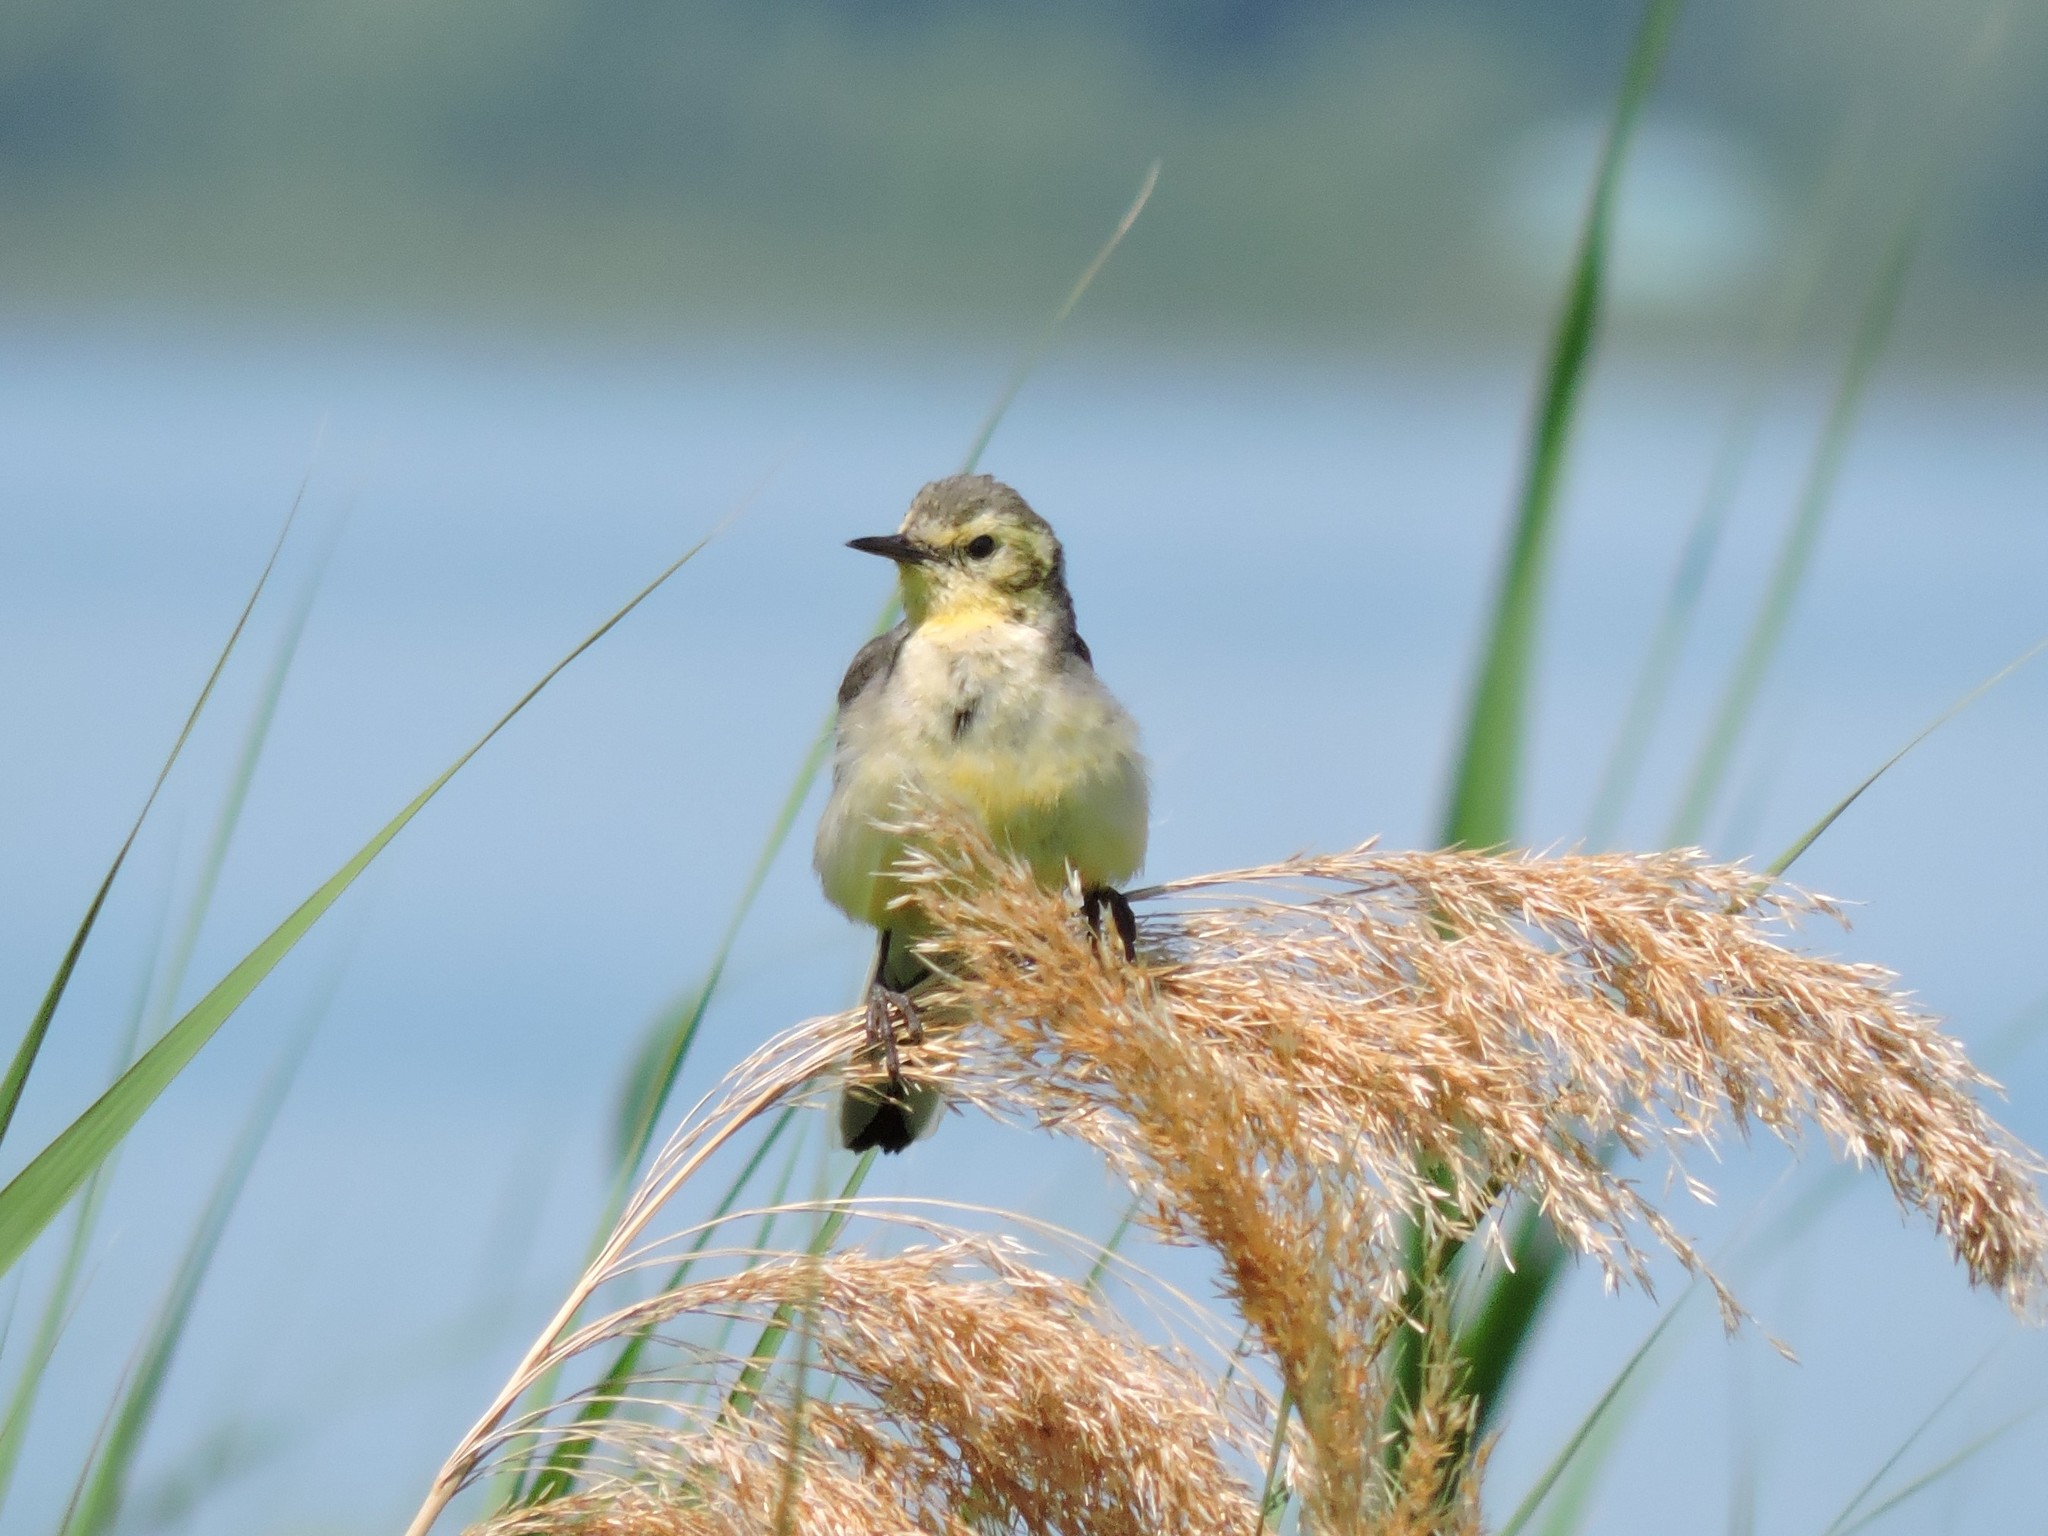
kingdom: Animalia
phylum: Chordata
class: Aves
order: Passeriformes
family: Motacillidae
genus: Motacilla
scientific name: Motacilla citreola
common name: Citrine wagtail
